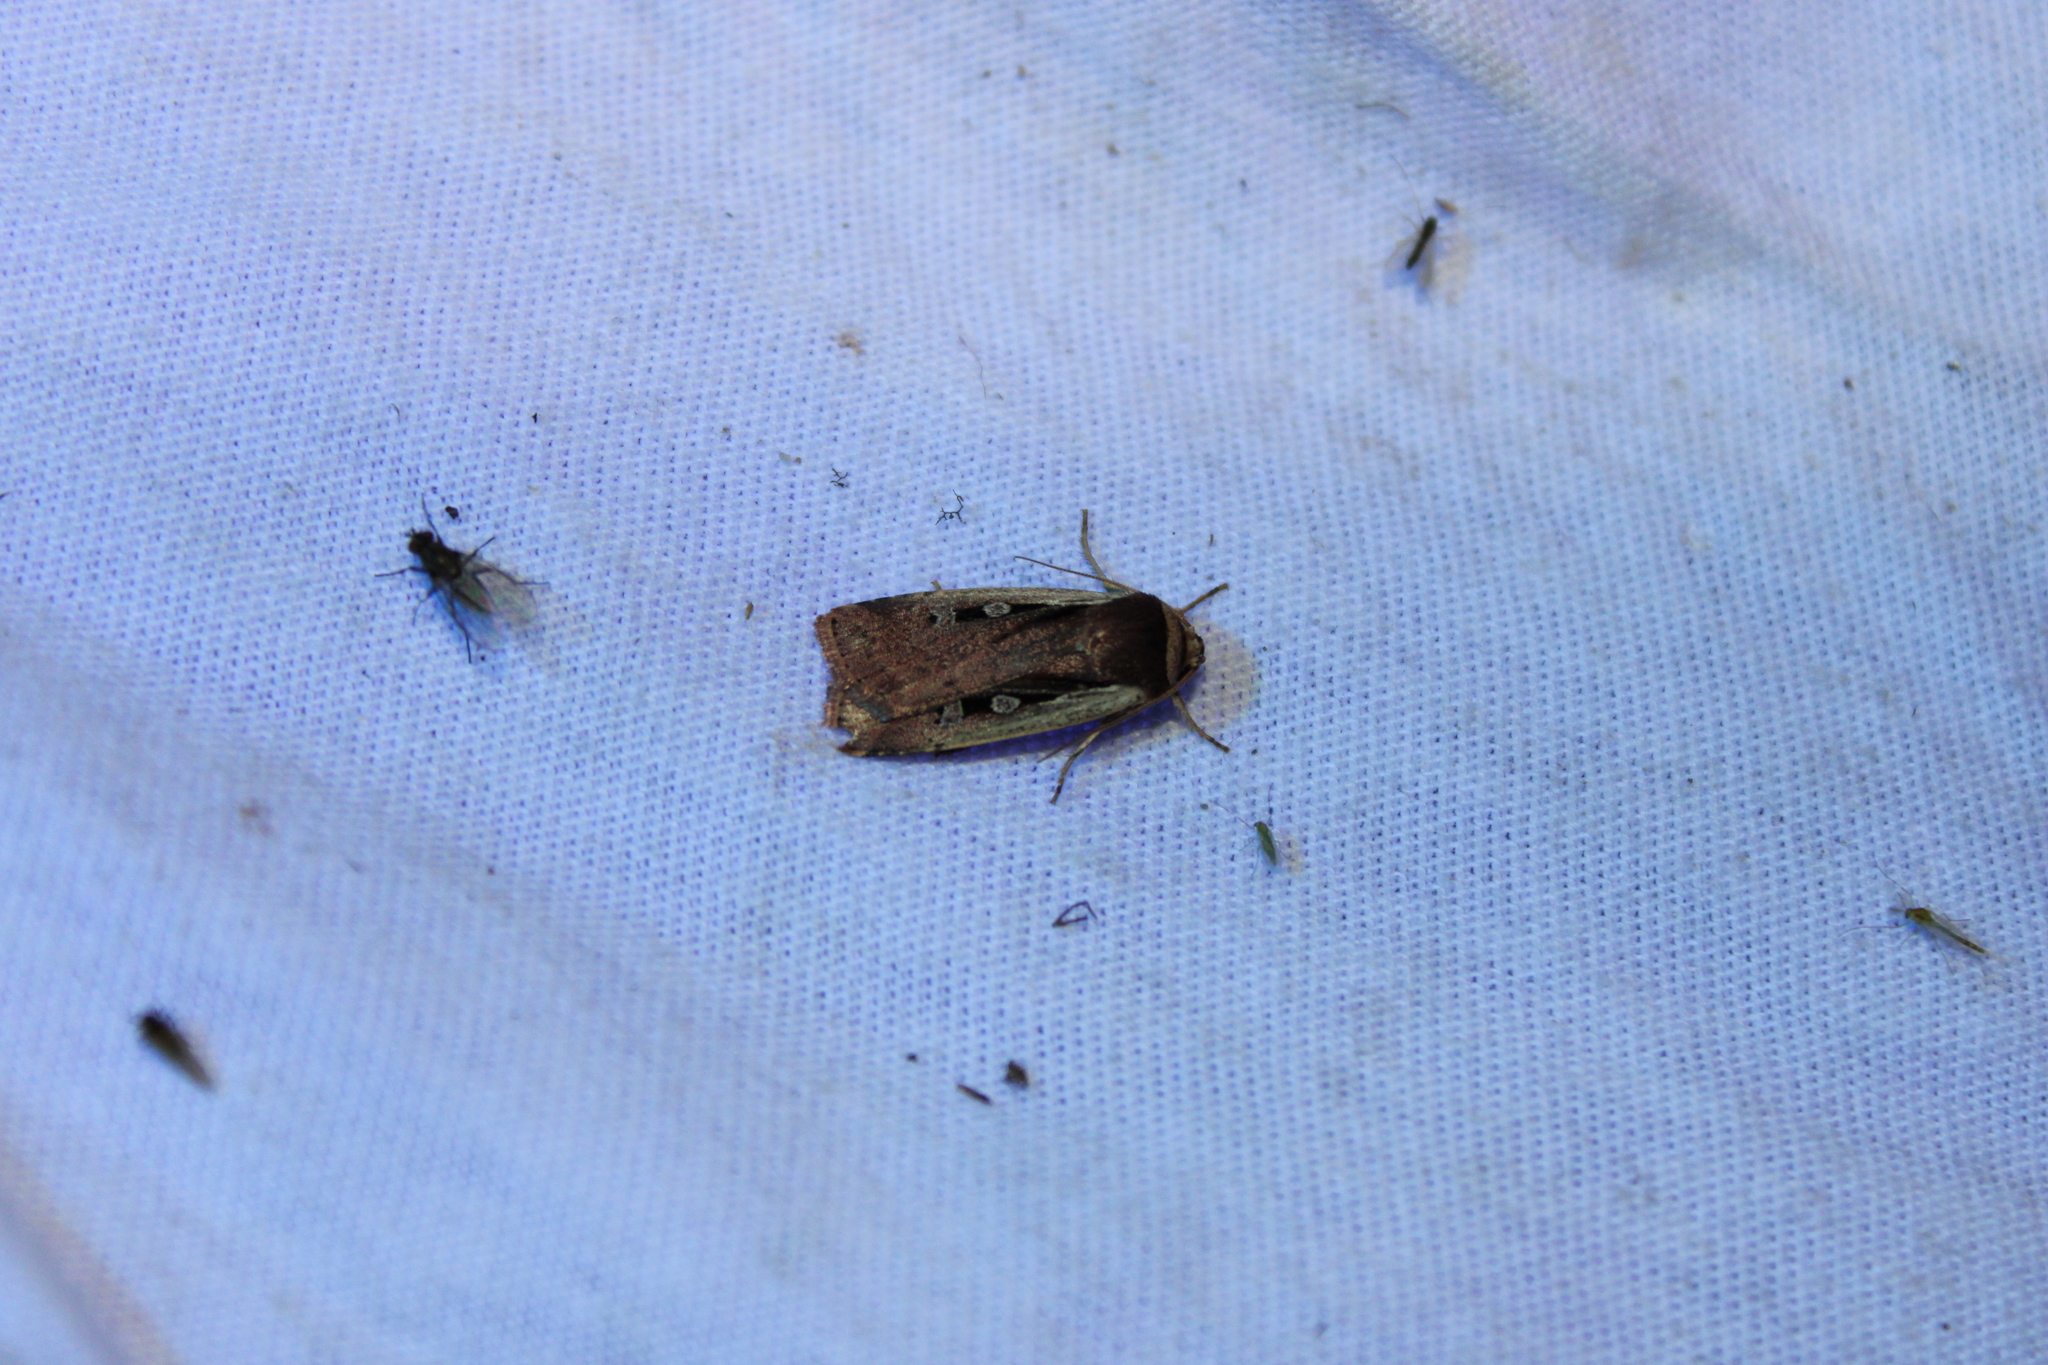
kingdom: Animalia
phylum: Arthropoda
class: Insecta
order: Lepidoptera
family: Noctuidae
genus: Ochropleura
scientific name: Ochropleura implecta
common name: Flame-shouldered dart
